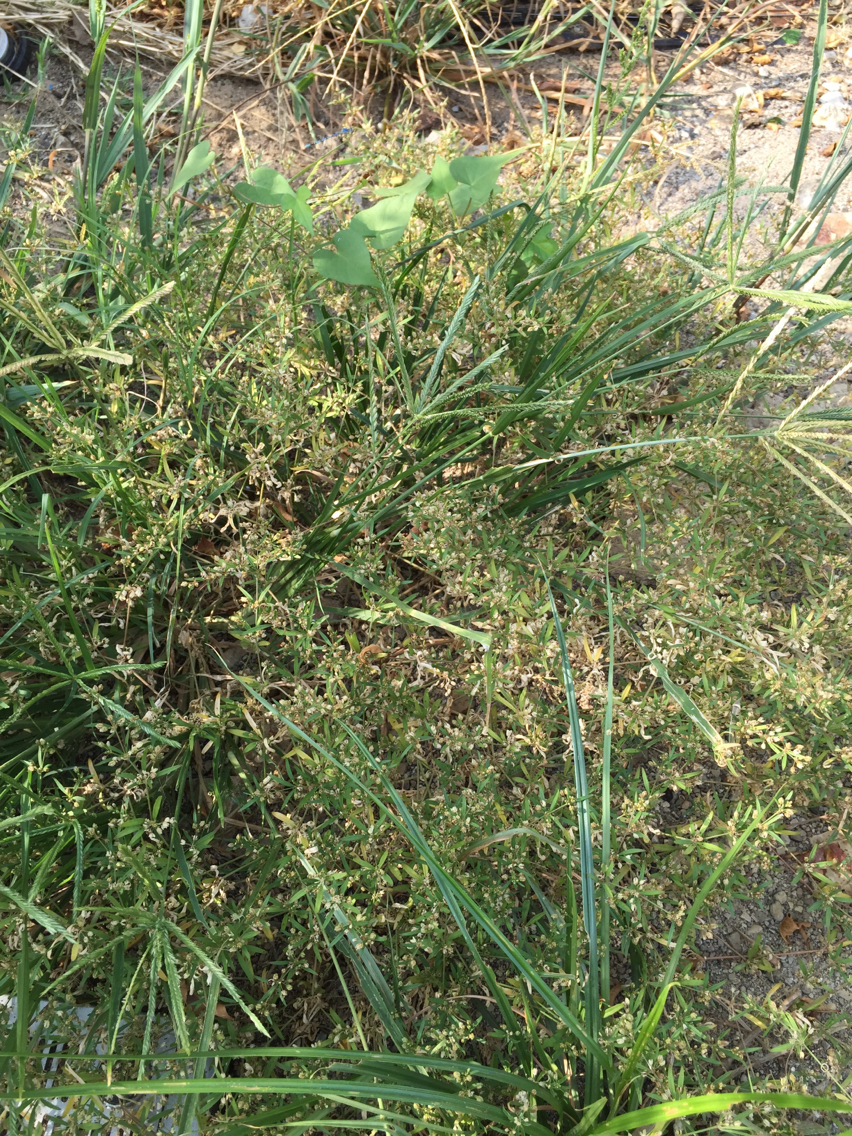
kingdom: Plantae
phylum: Tracheophyta
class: Magnoliopsida
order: Caryophyllales
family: Molluginaceae
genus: Mollugo
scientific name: Mollugo verticillata
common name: Green carpetweed
